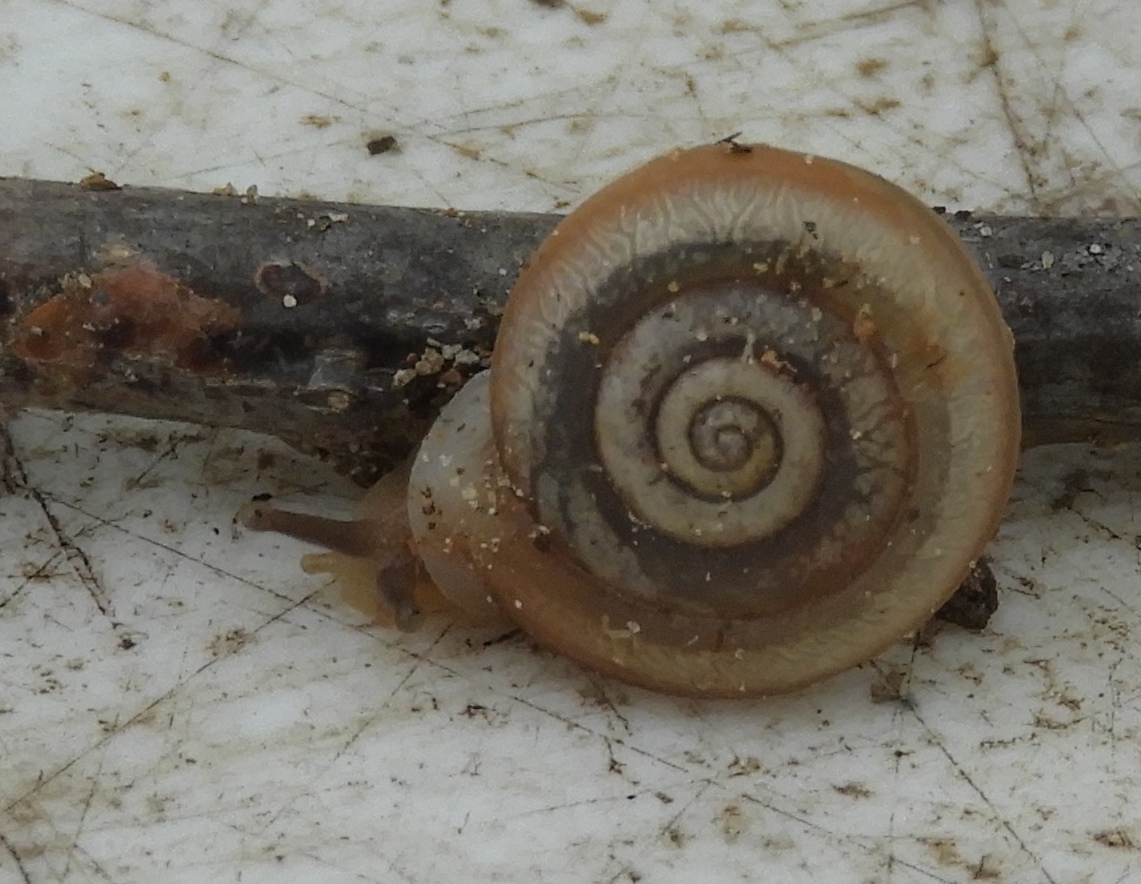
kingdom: Animalia
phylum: Mollusca
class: Gastropoda
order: Stylommatophora
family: Polygyridae
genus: Linisa
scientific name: Linisa
